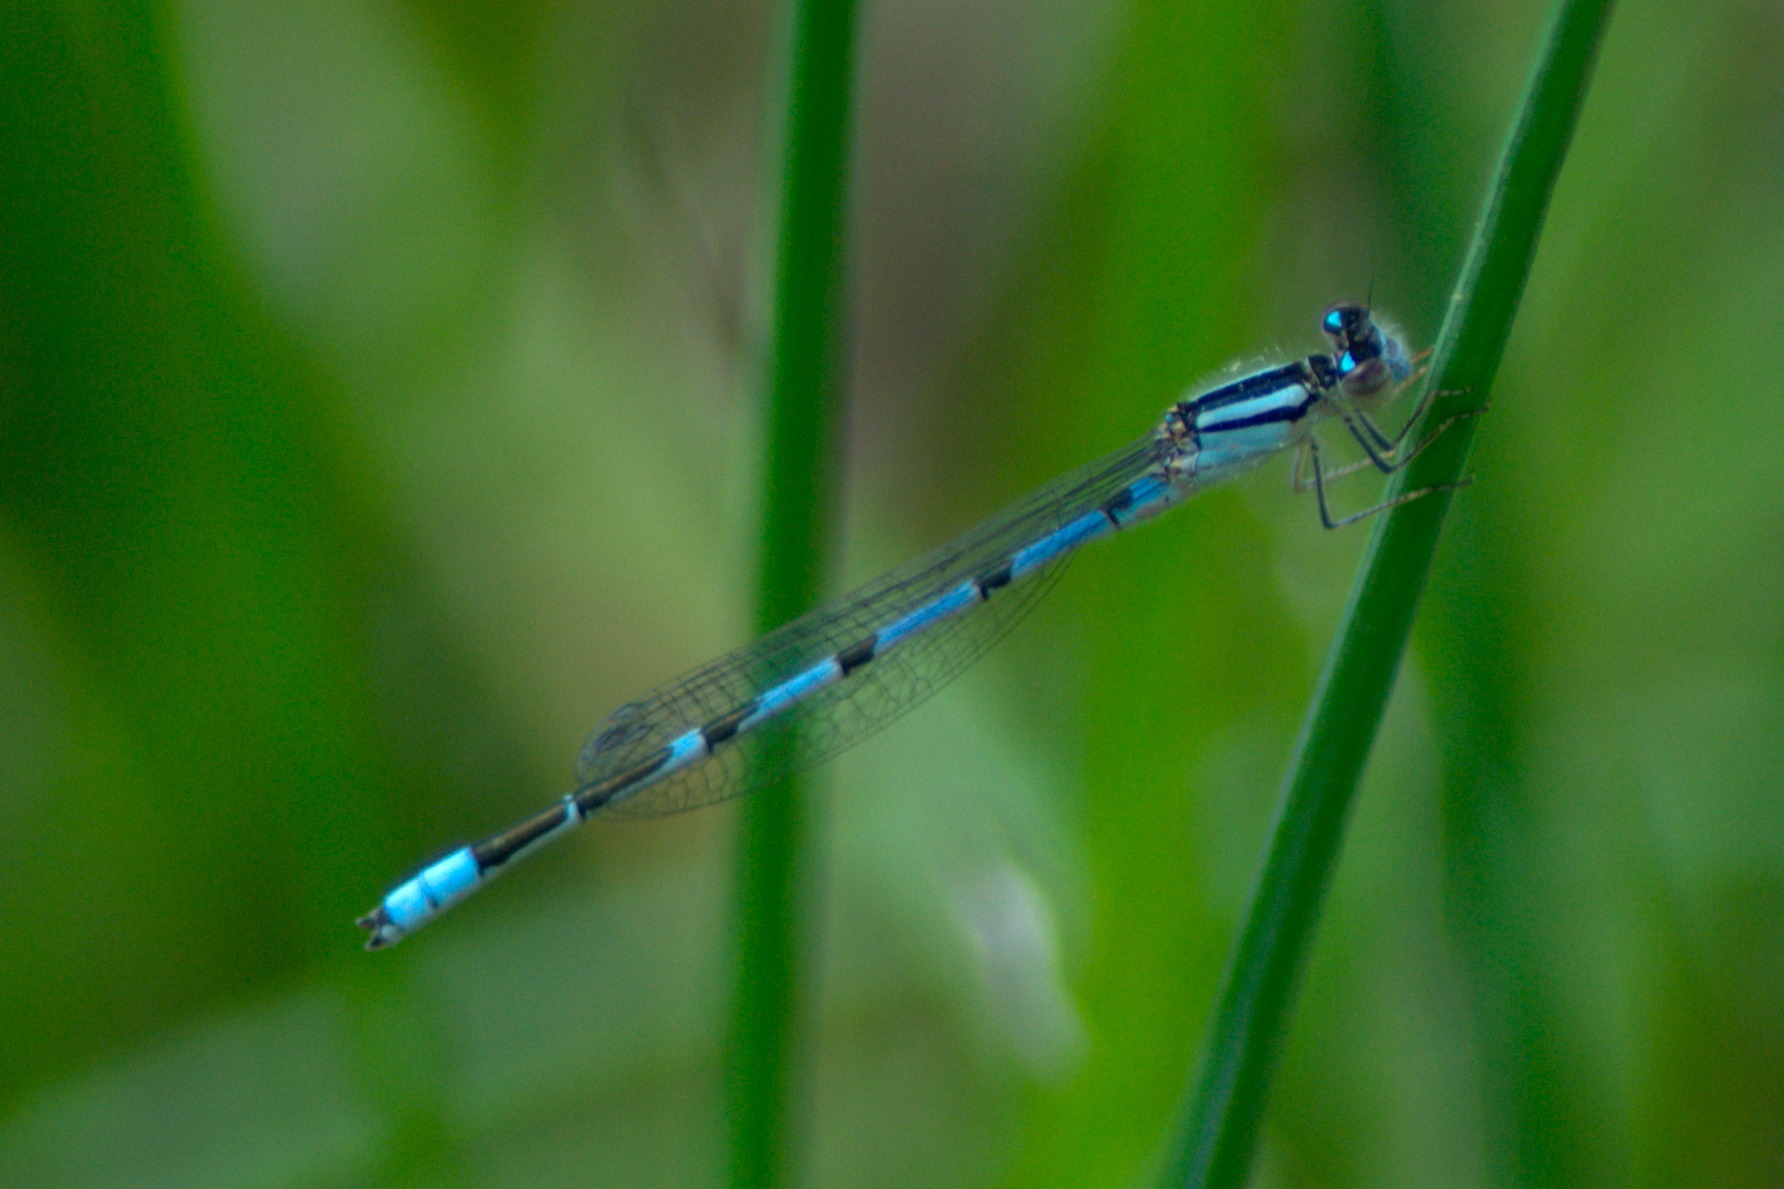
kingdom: Animalia
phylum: Arthropoda
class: Insecta
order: Odonata
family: Coenagrionidae
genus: Enallagma
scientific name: Enallagma civile
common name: Damselfly
